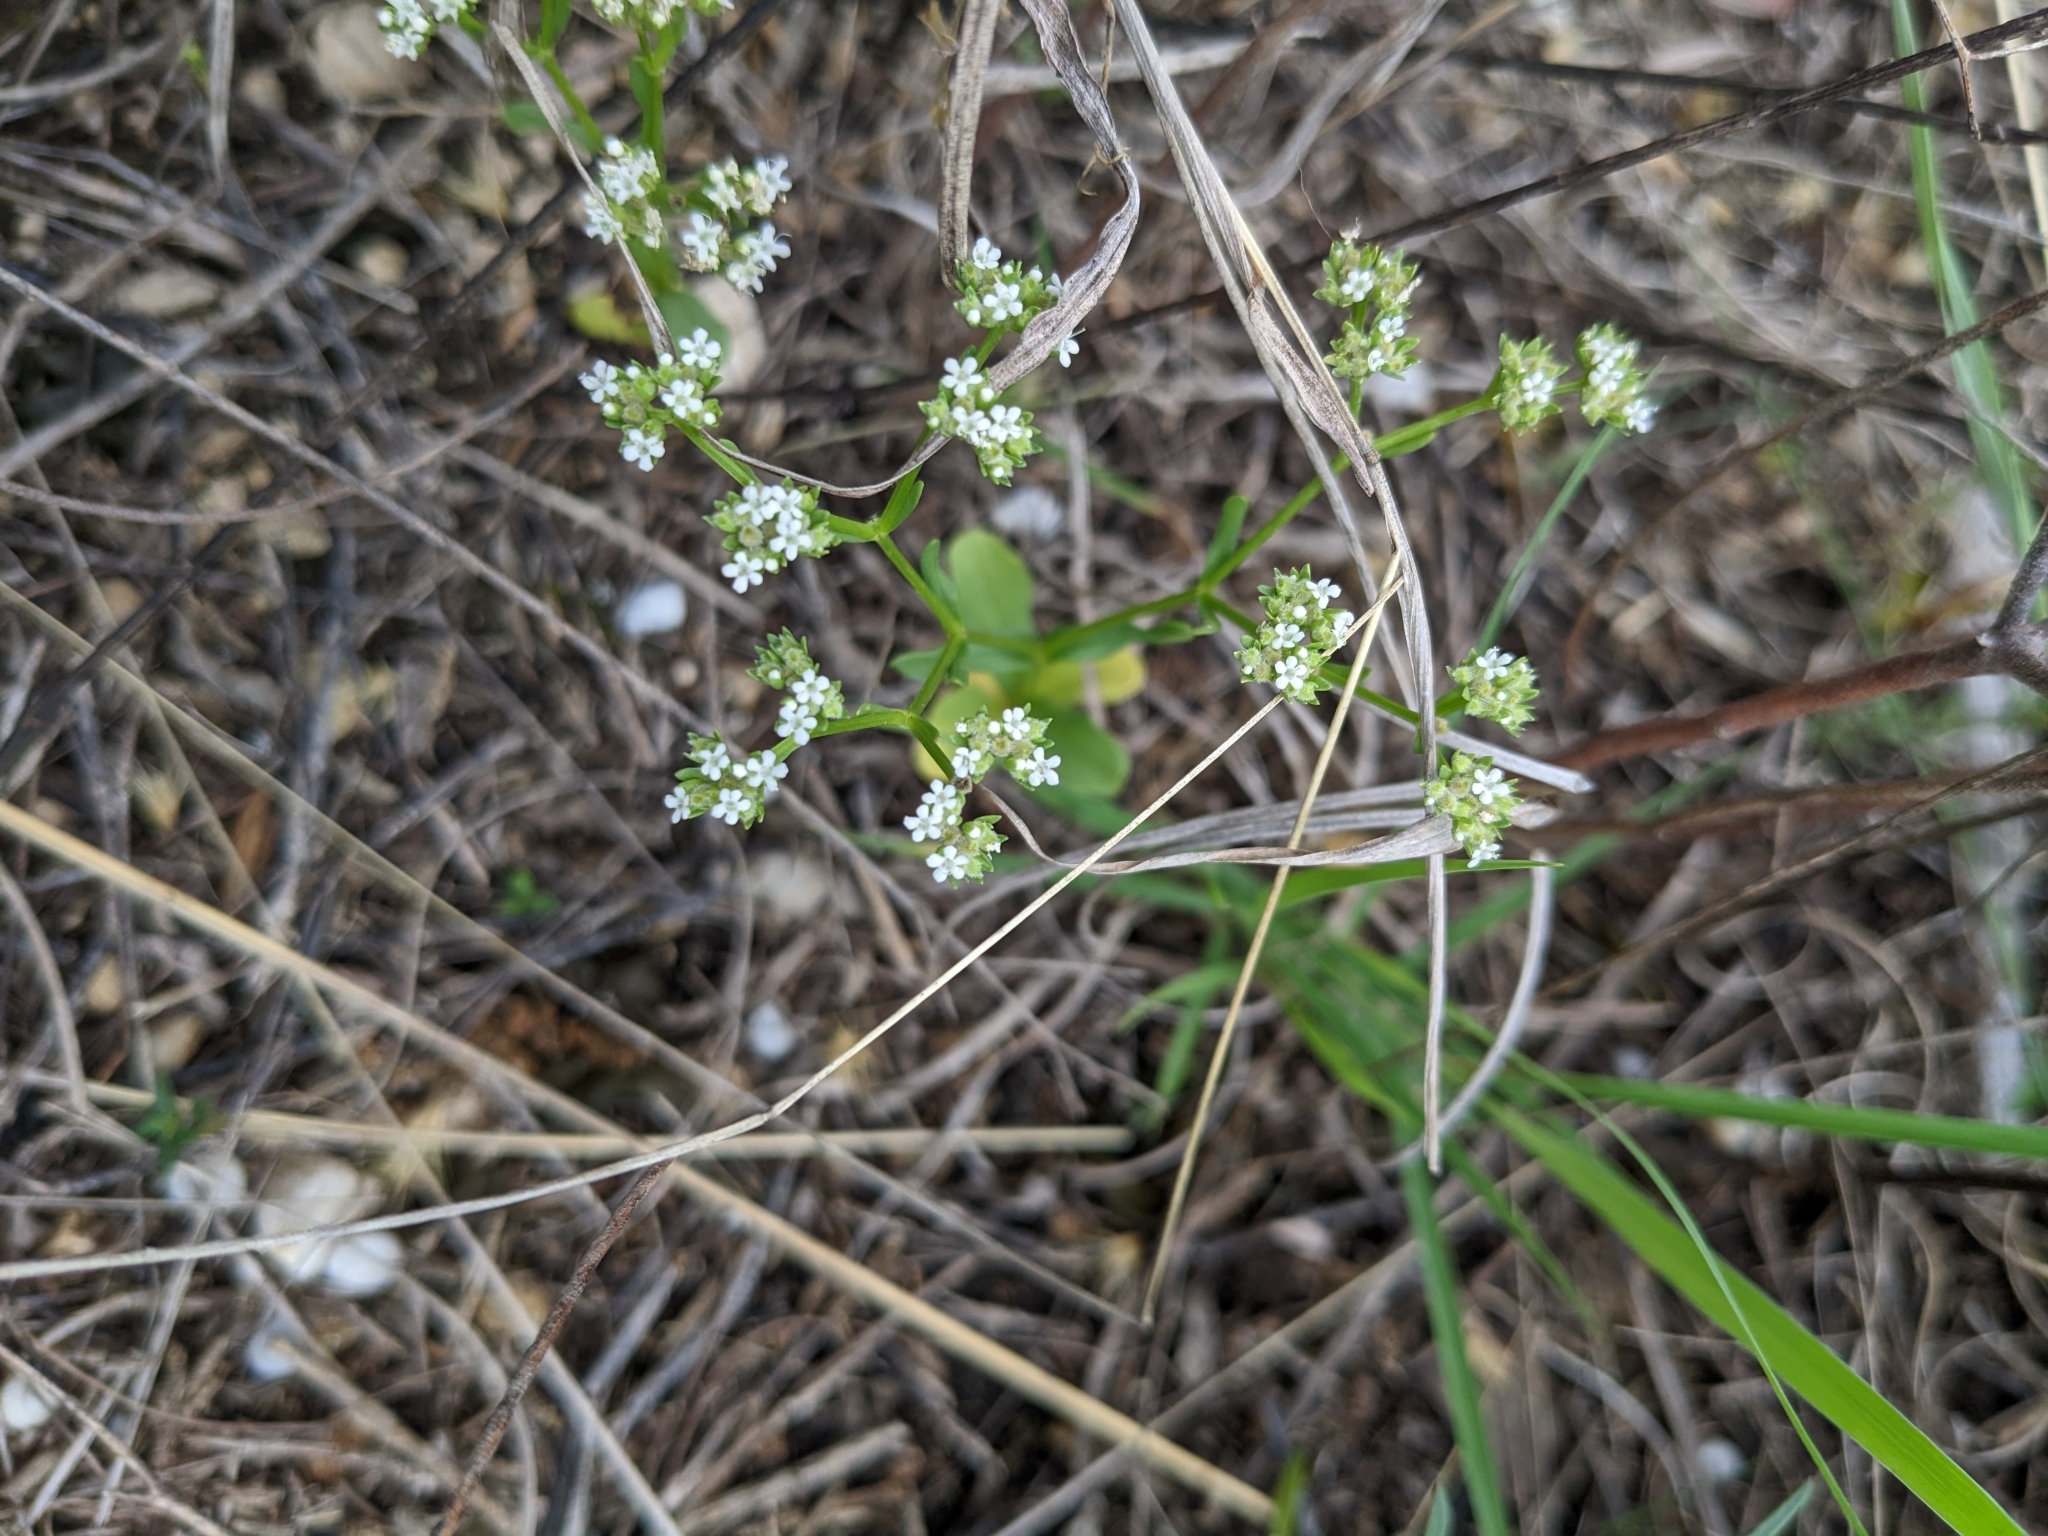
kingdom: Plantae
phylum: Tracheophyta
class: Magnoliopsida
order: Dipsacales
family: Caprifoliaceae
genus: Valerianella
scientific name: Valerianella amarella
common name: Hariy cornsalad
